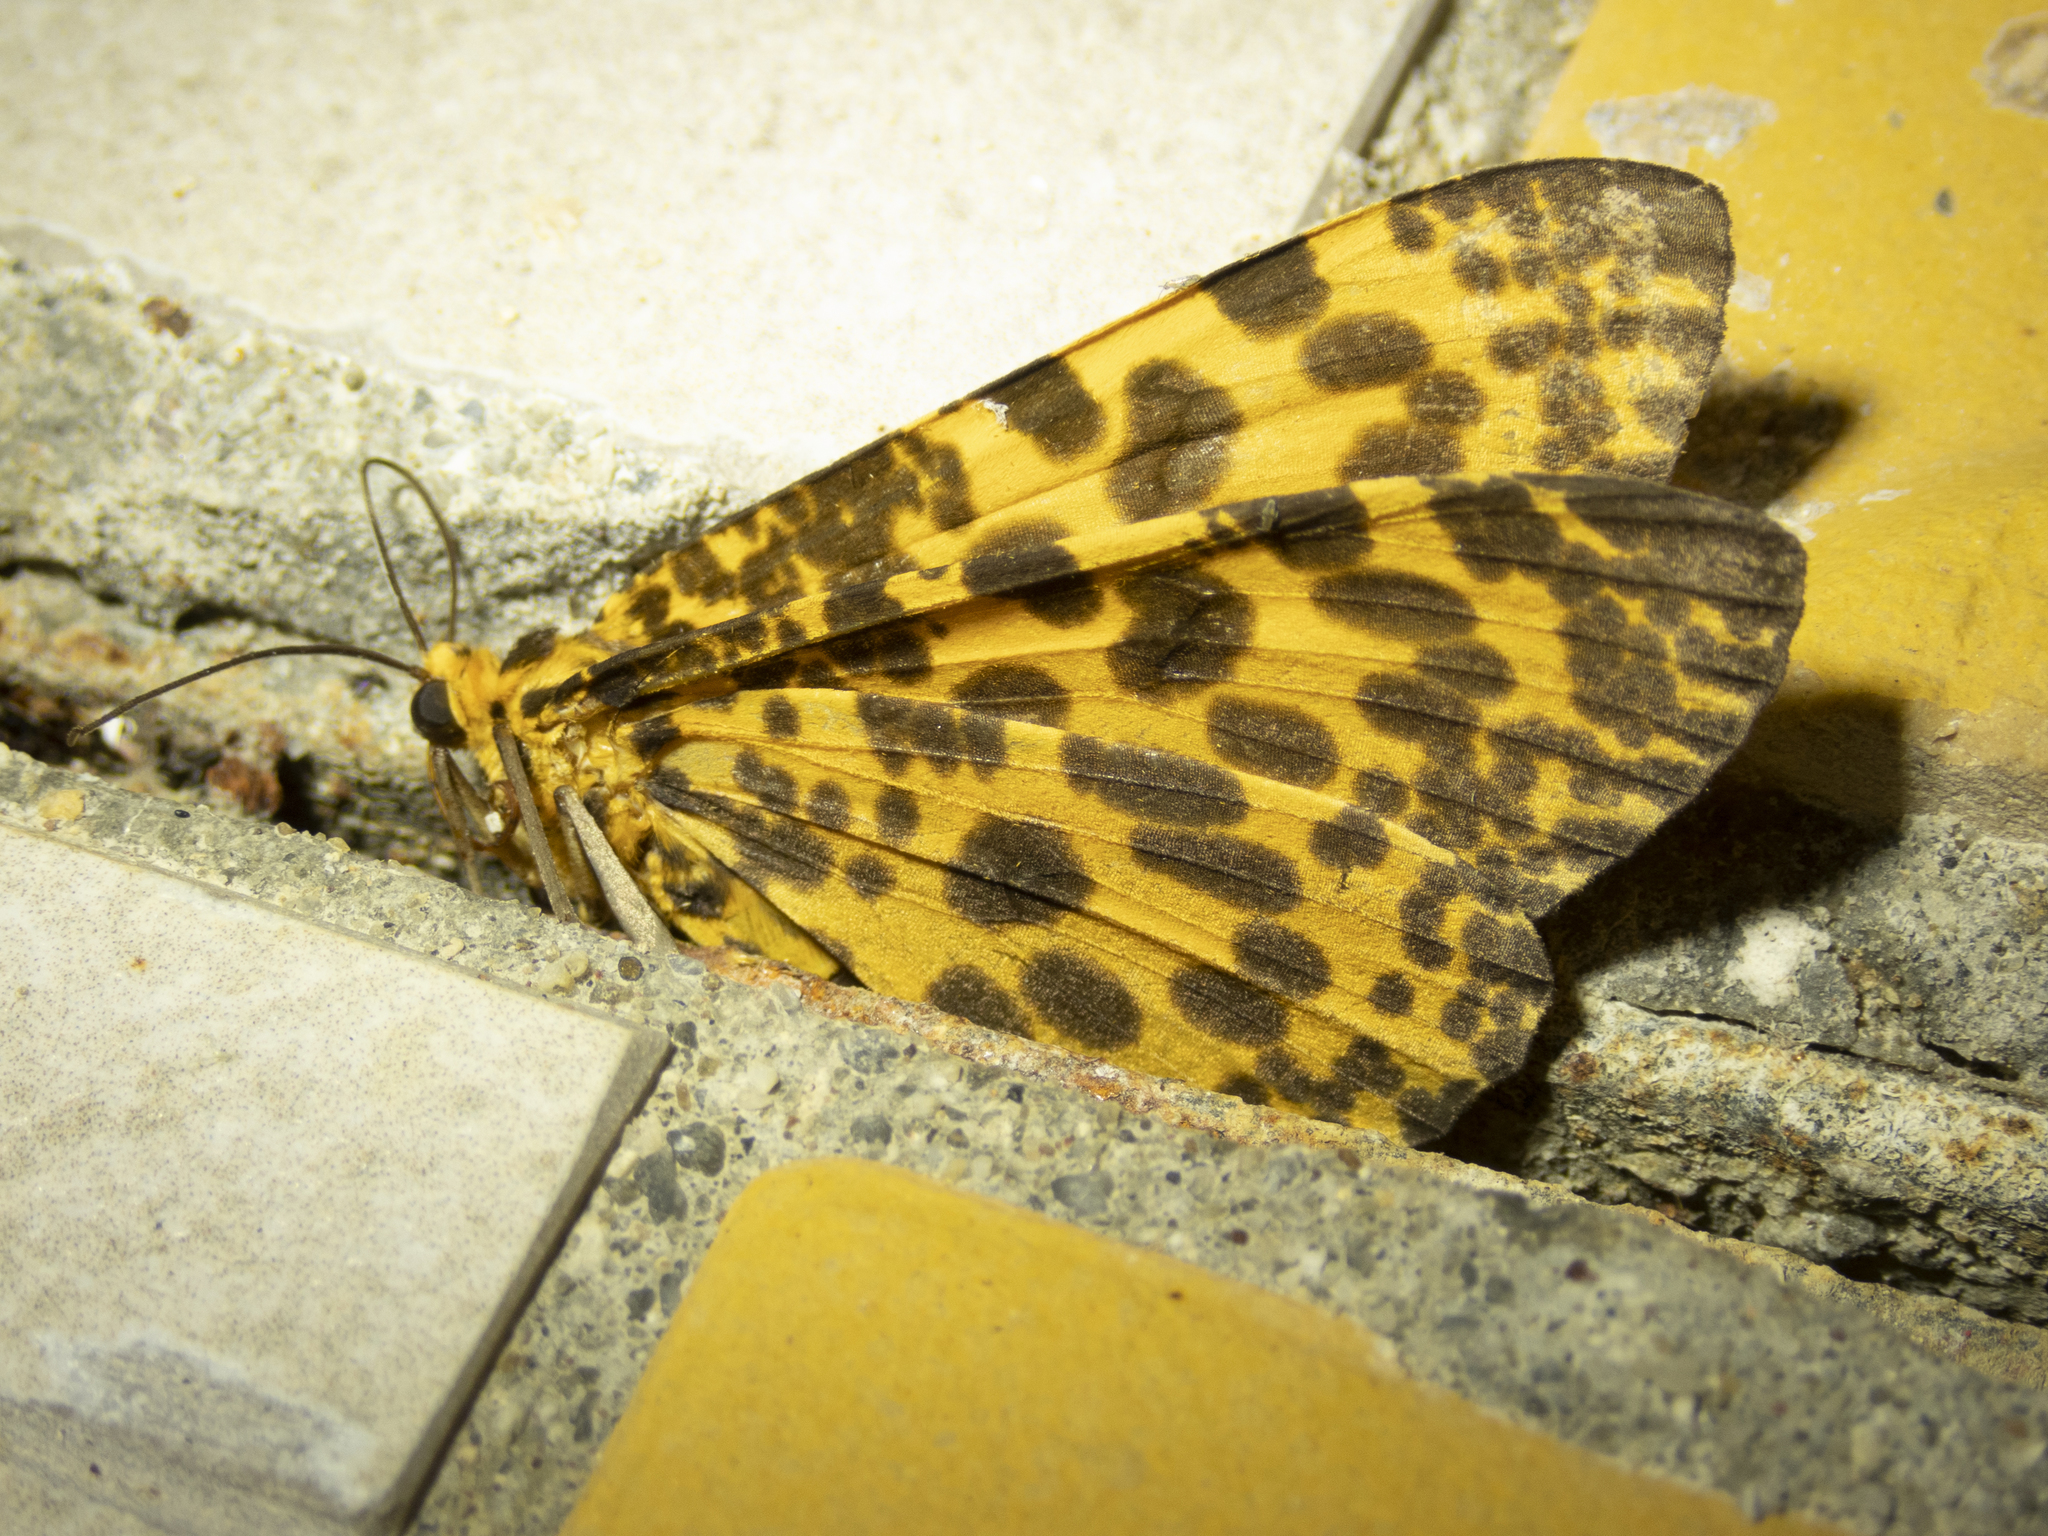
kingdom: Animalia
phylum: Arthropoda
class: Insecta
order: Lepidoptera
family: Geometridae
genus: Obeidia
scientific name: Obeidia Epobeidia tigrata
